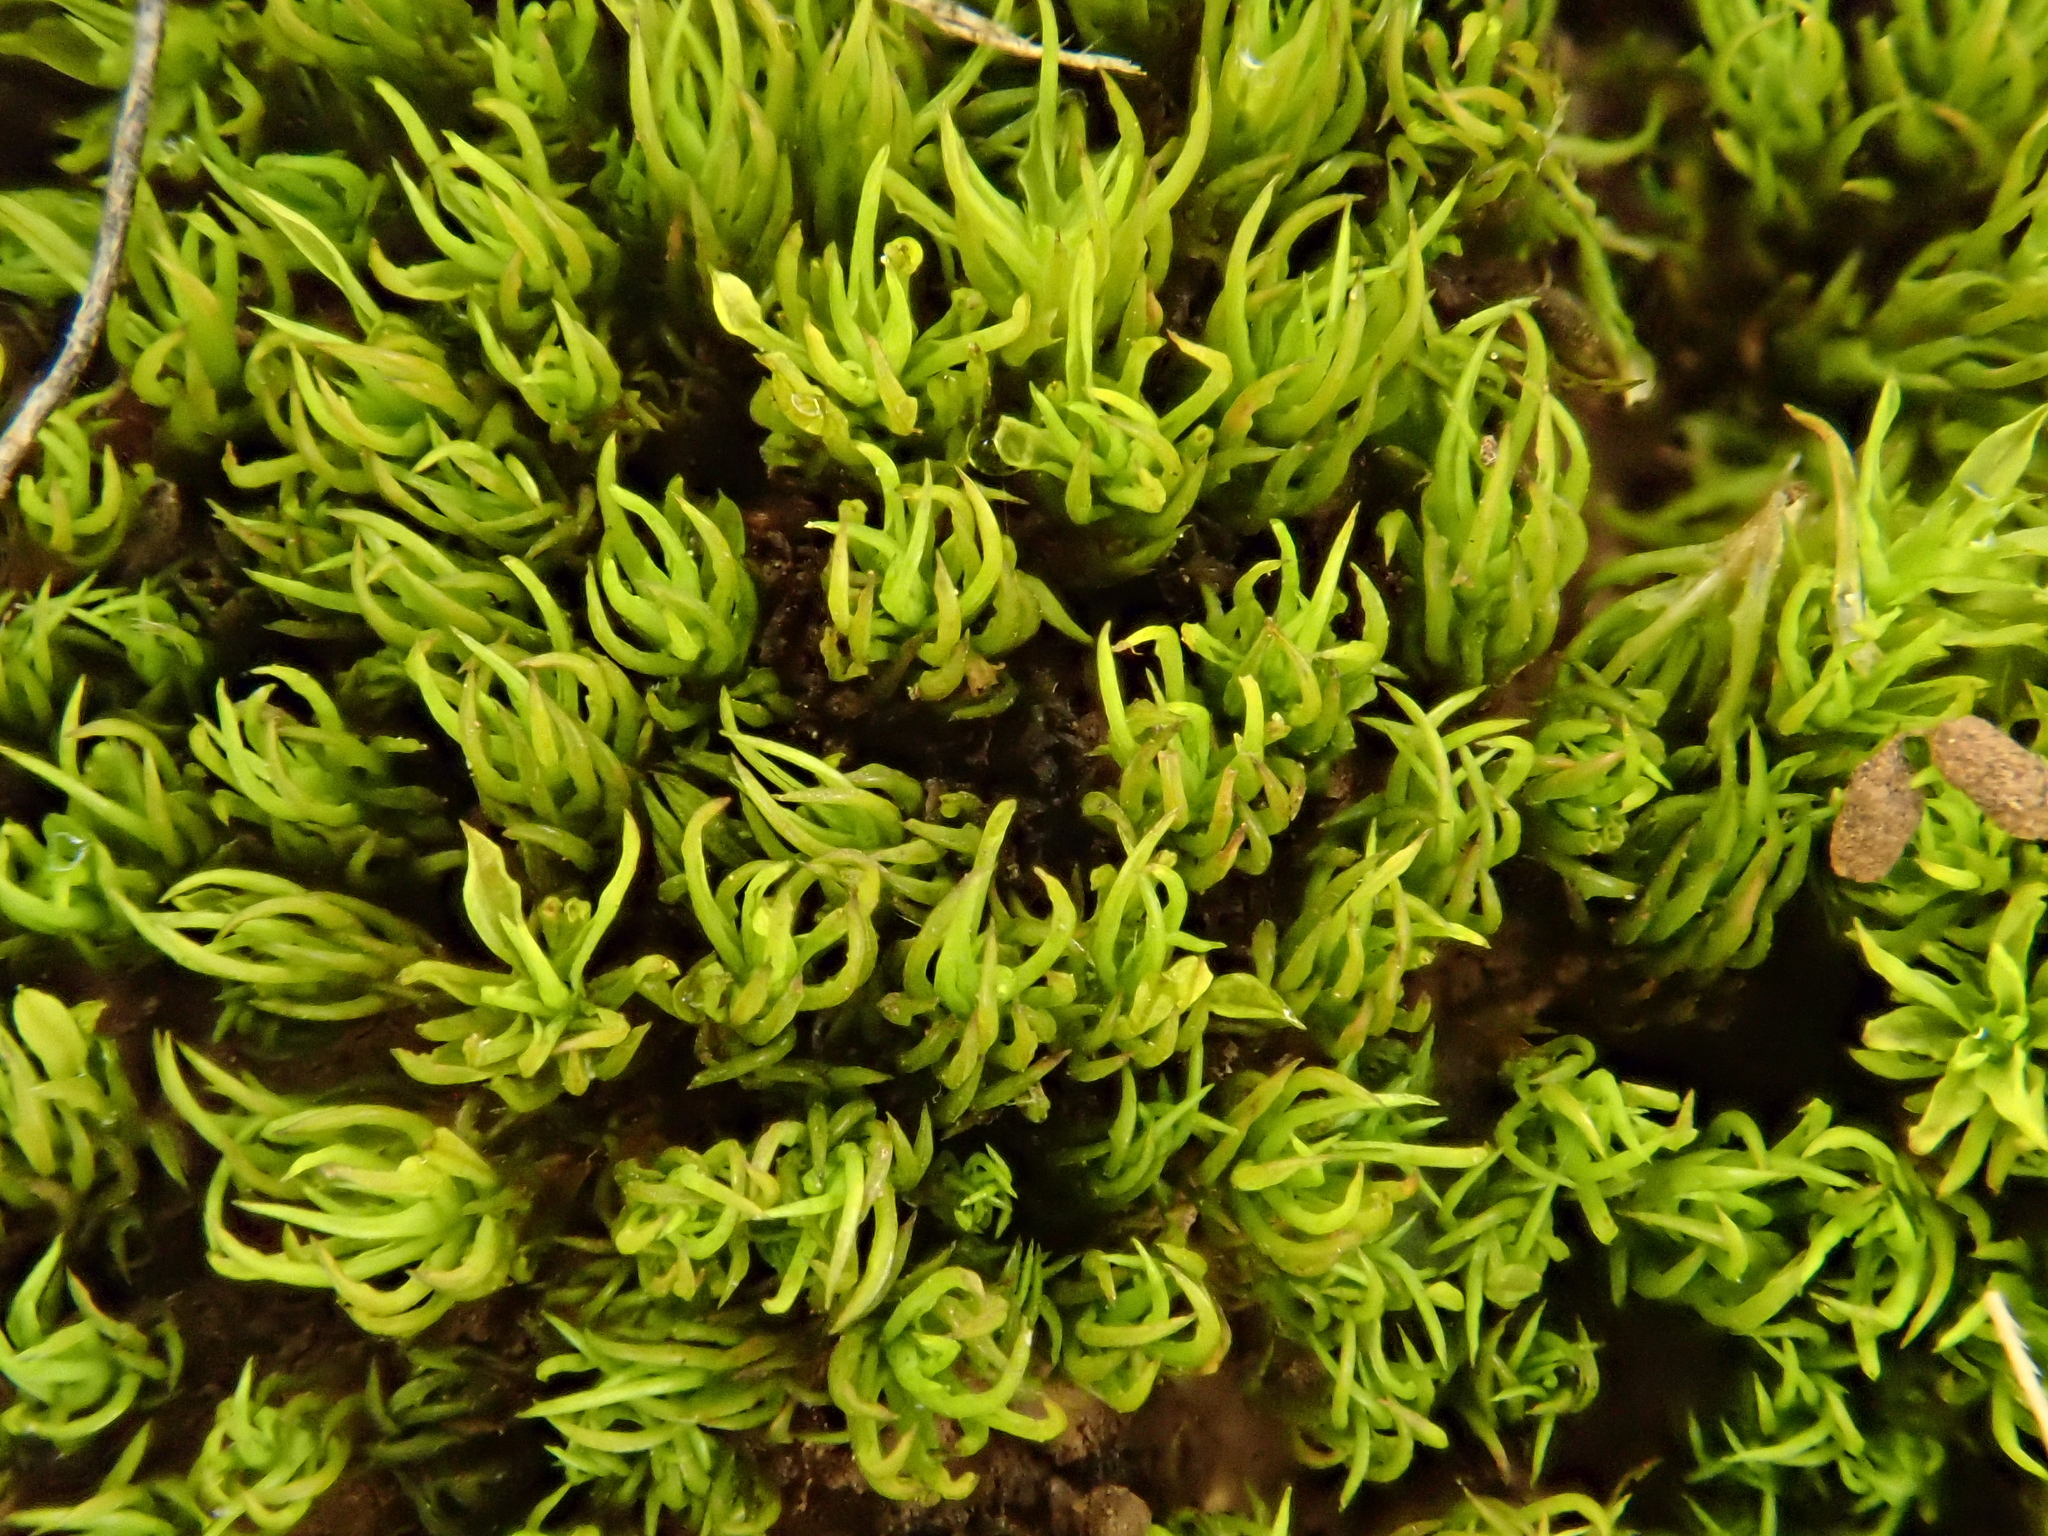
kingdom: Plantae
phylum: Bryophyta
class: Bryopsida
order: Pottiales
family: Pottiaceae
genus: Trichostomum
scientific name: Trichostomum brachydontium
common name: Variable crisp-moss
